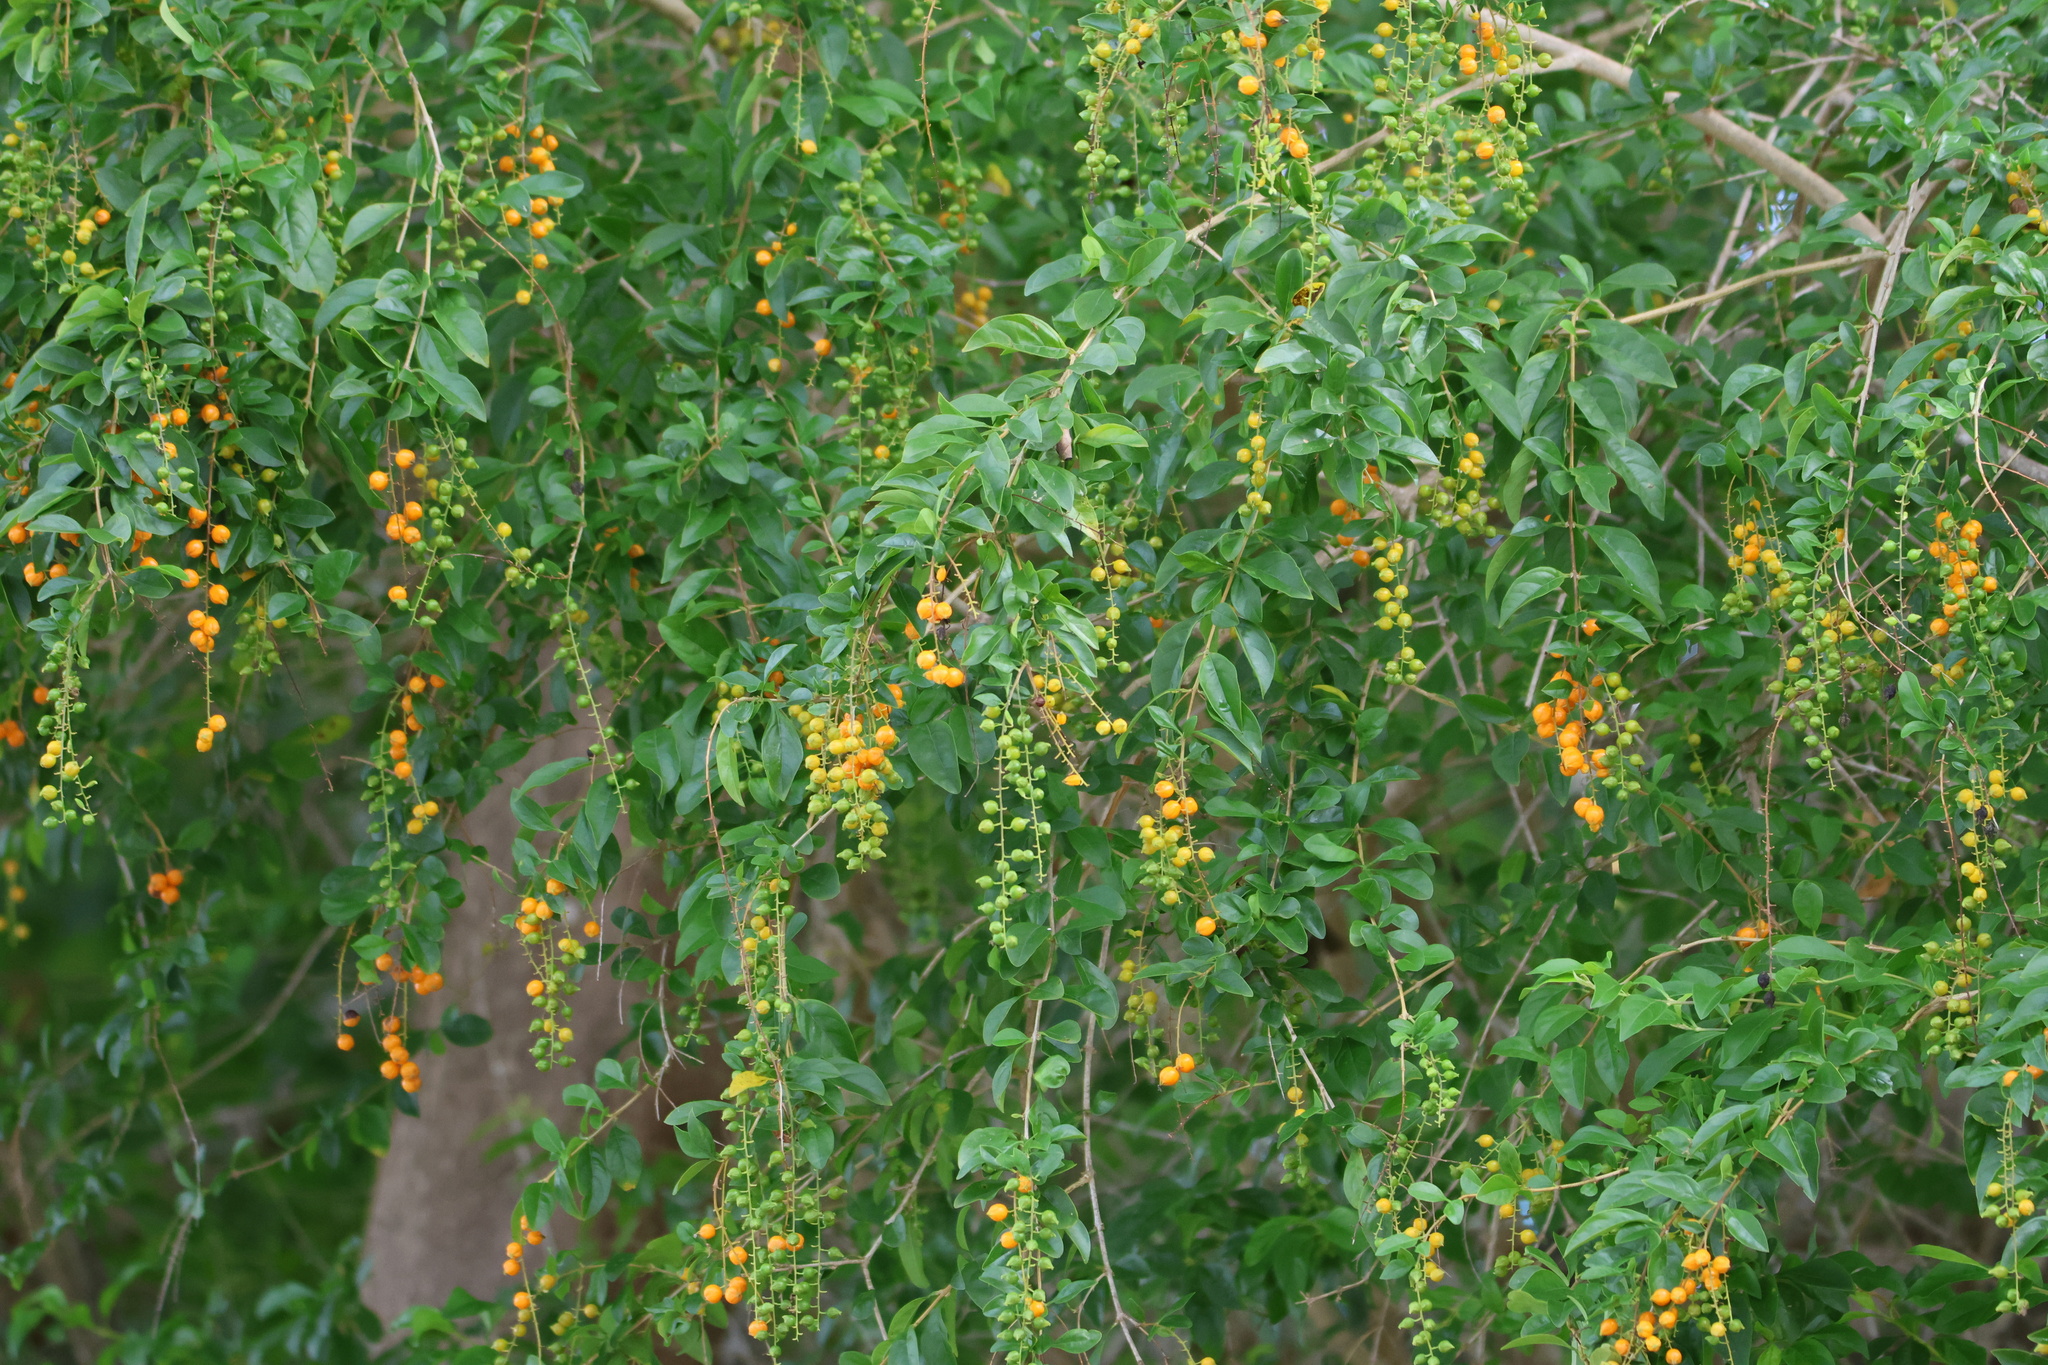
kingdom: Plantae
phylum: Tracheophyta
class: Magnoliopsida
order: Lamiales
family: Verbenaceae
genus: Duranta
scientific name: Duranta erecta
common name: Golden dewdrops
